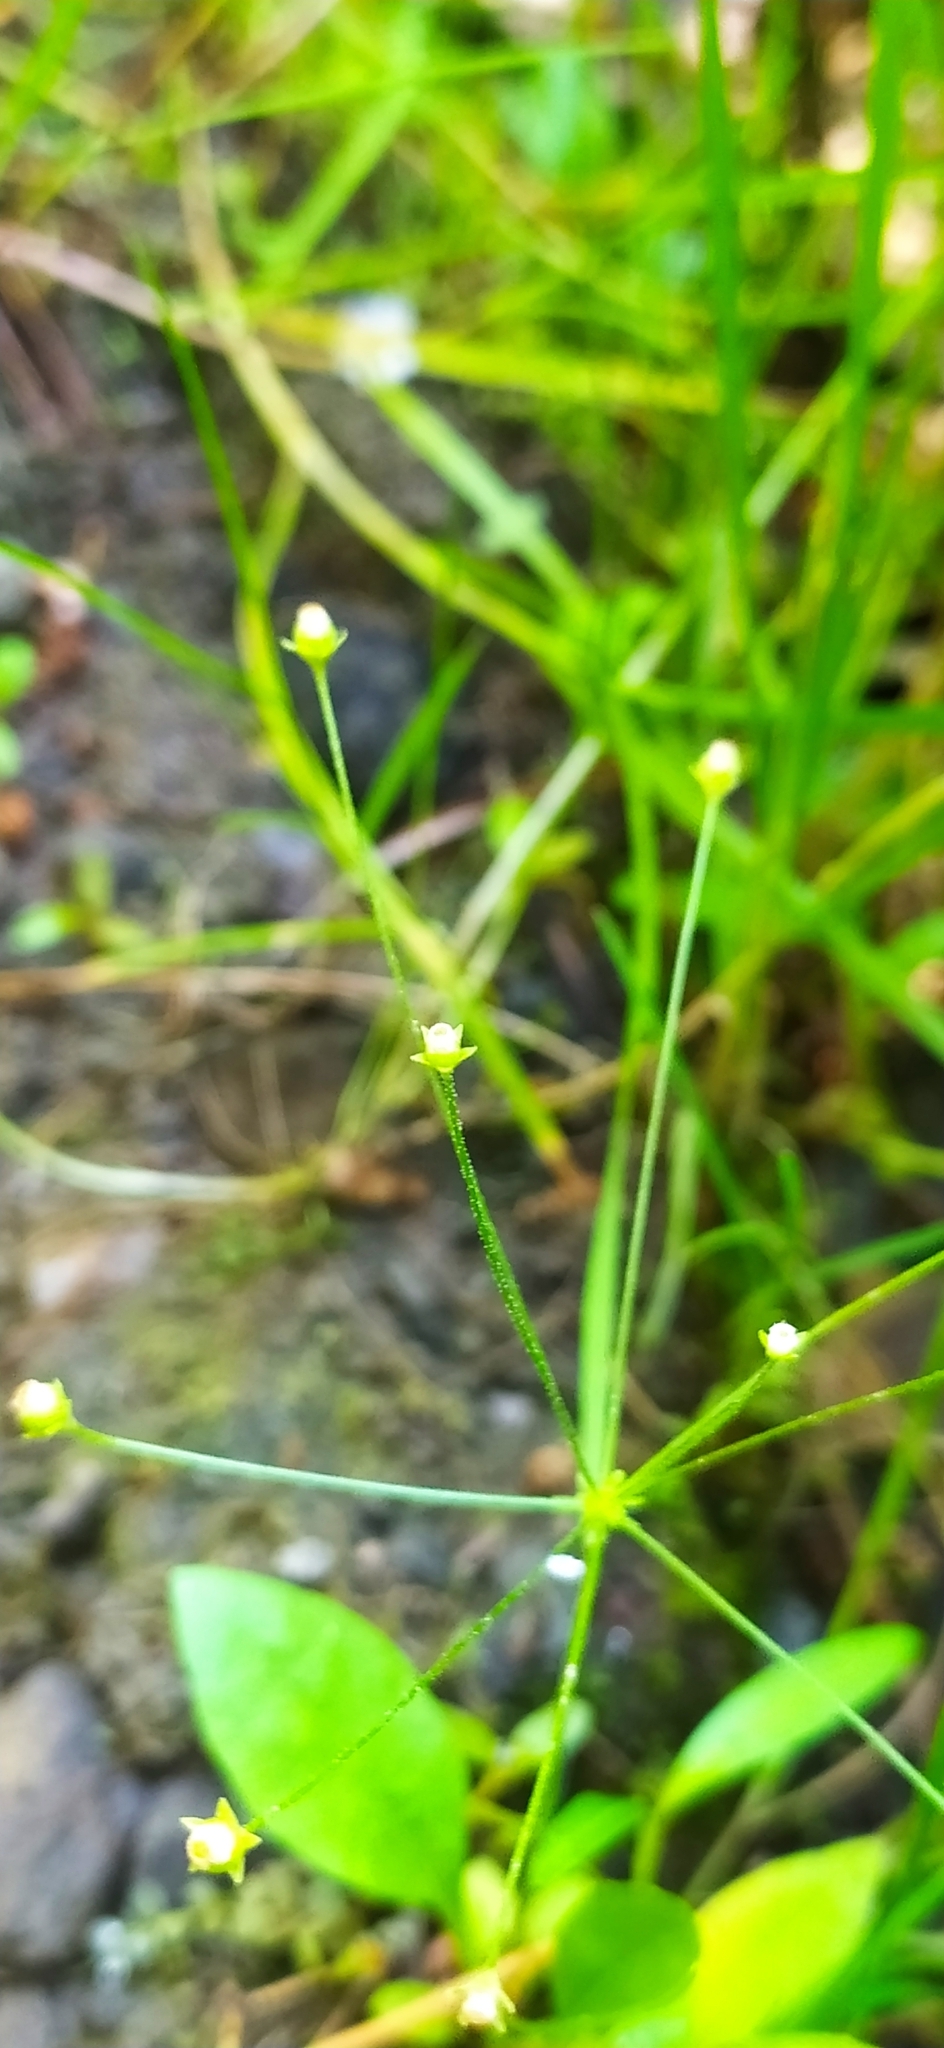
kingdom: Plantae
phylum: Tracheophyta
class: Magnoliopsida
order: Ericales
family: Primulaceae
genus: Androsace
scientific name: Androsace filiformis
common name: Filiform rock jasmine
